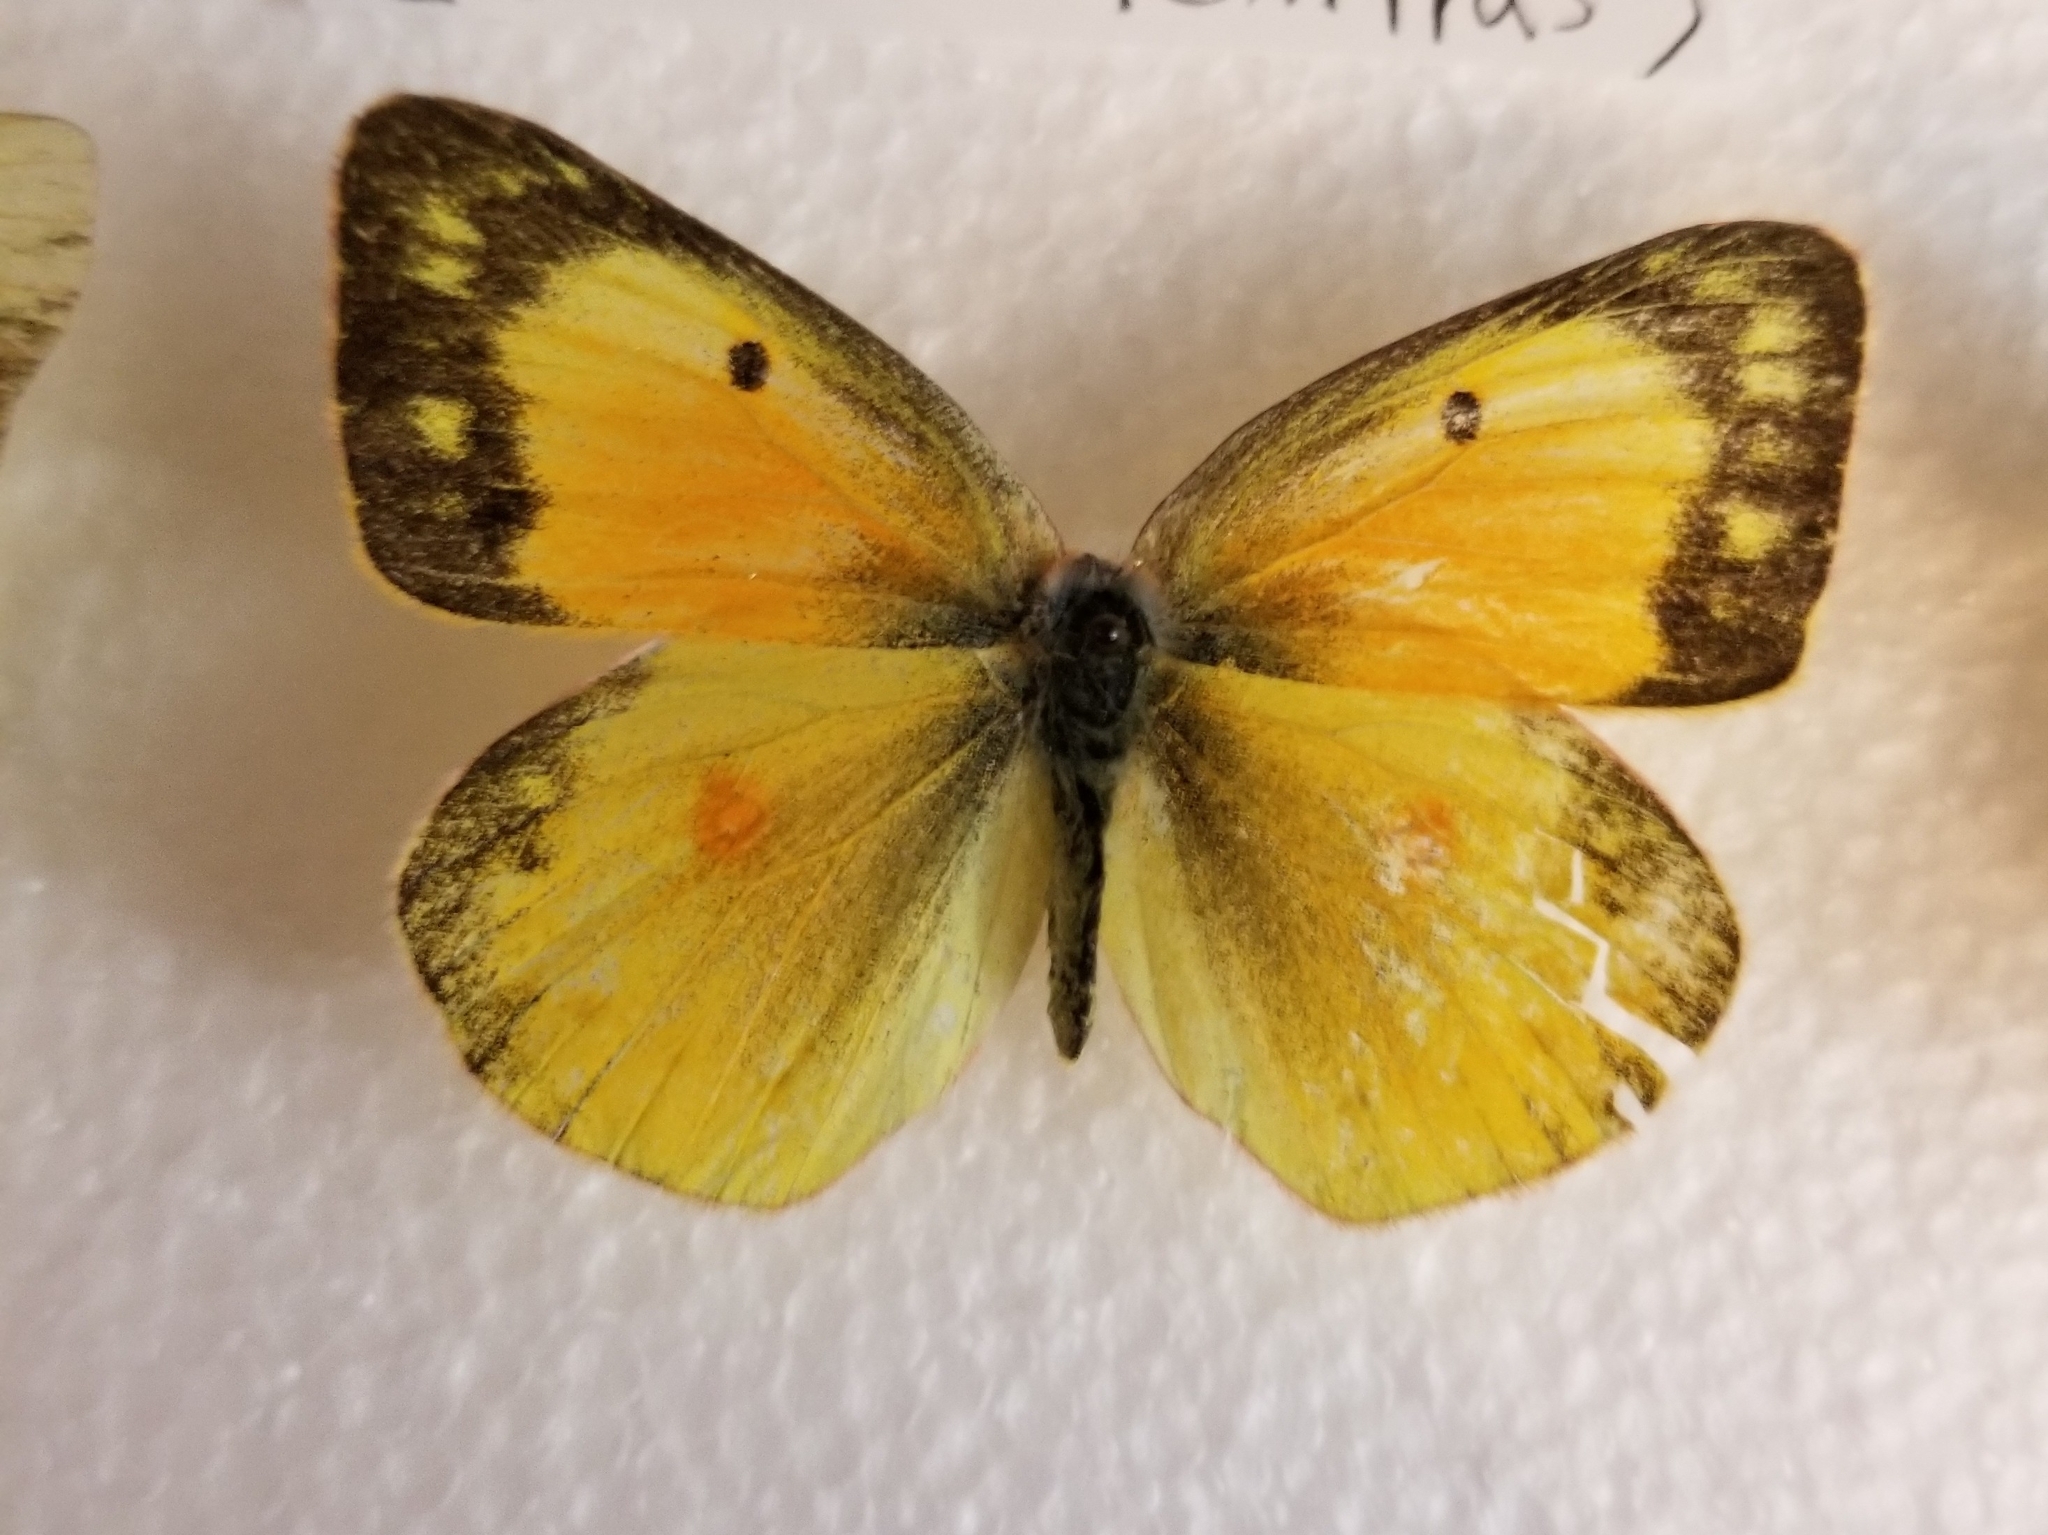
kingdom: Animalia
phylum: Arthropoda
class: Insecta
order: Lepidoptera
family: Pieridae
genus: Colias
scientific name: Colias eurytheme
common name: Alfalfa butterfly
